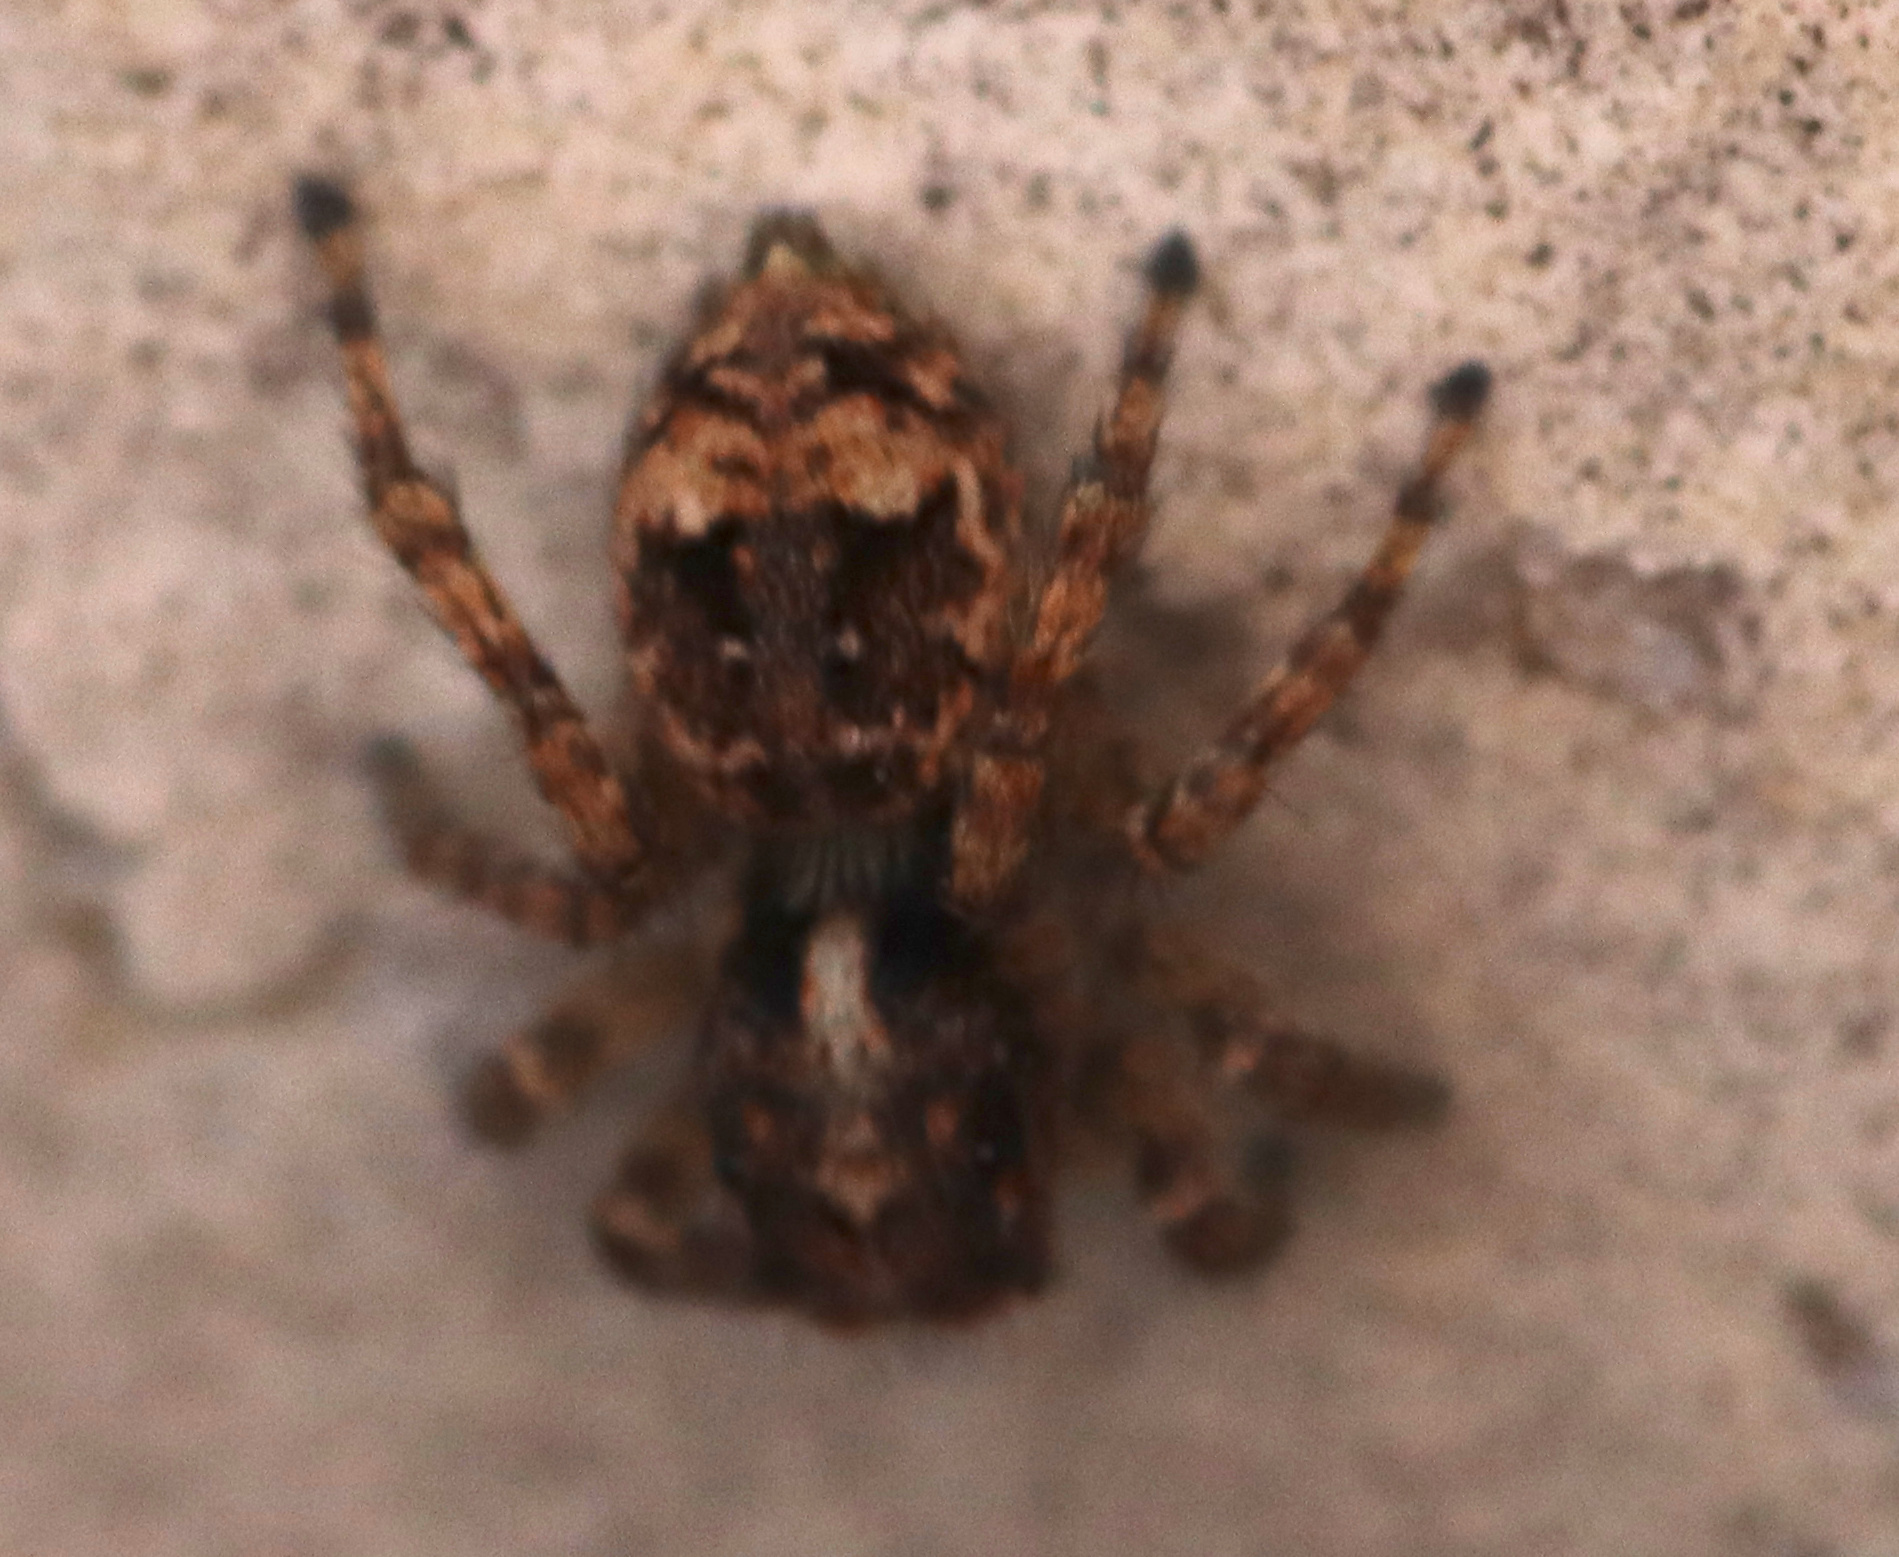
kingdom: Animalia
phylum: Arthropoda
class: Arachnida
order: Araneae
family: Salticidae
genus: Attulus
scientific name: Attulus fasciger
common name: Asiatic wall jumping spider
